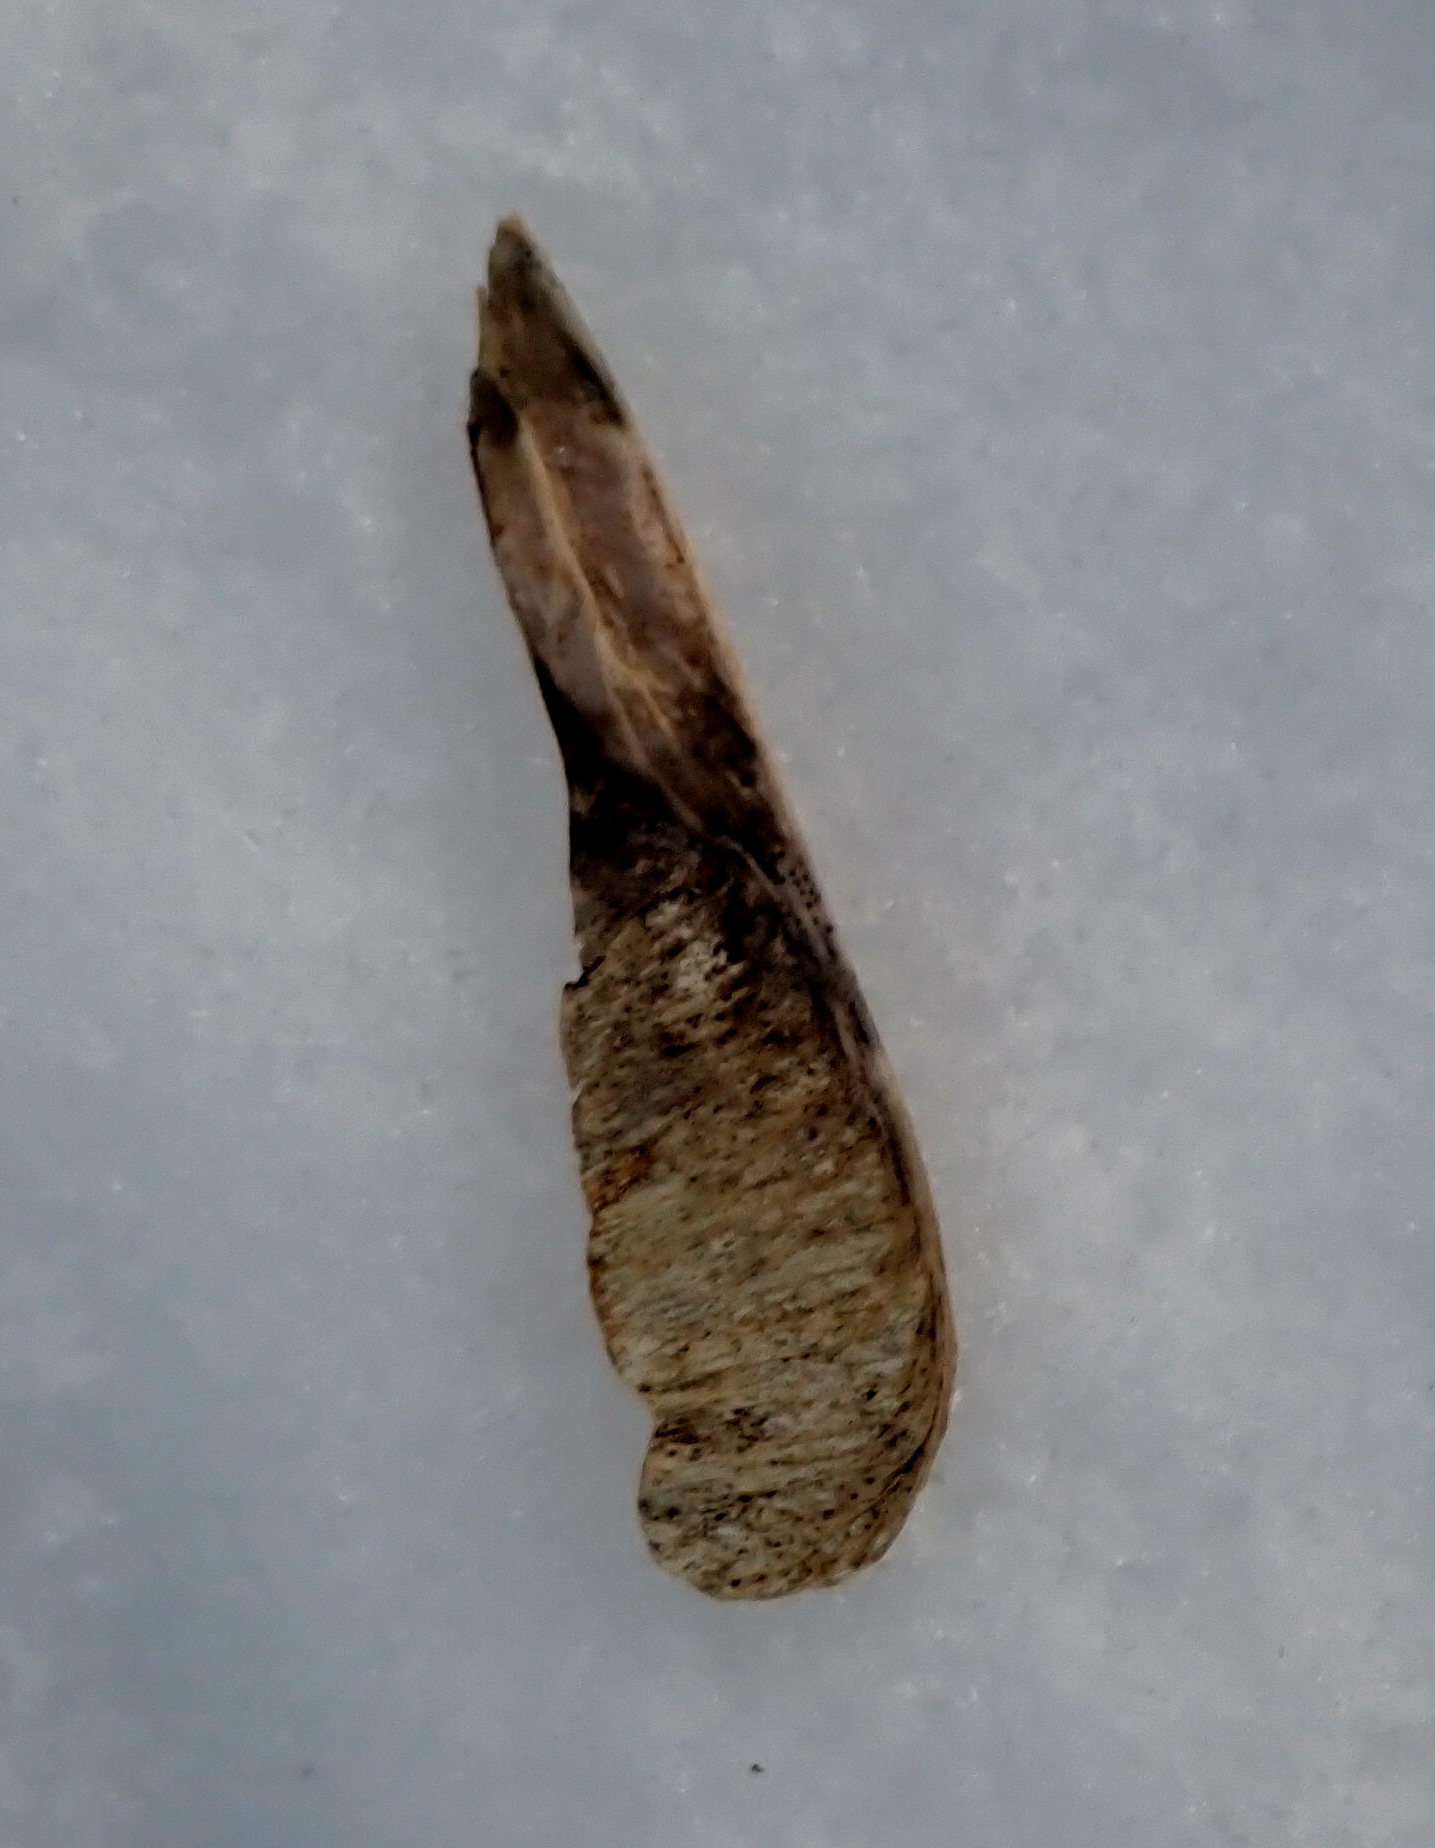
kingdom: Plantae
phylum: Tracheophyta
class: Magnoliopsida
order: Sapindales
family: Sapindaceae
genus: Acer
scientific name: Acer negundo
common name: Ashleaf maple
